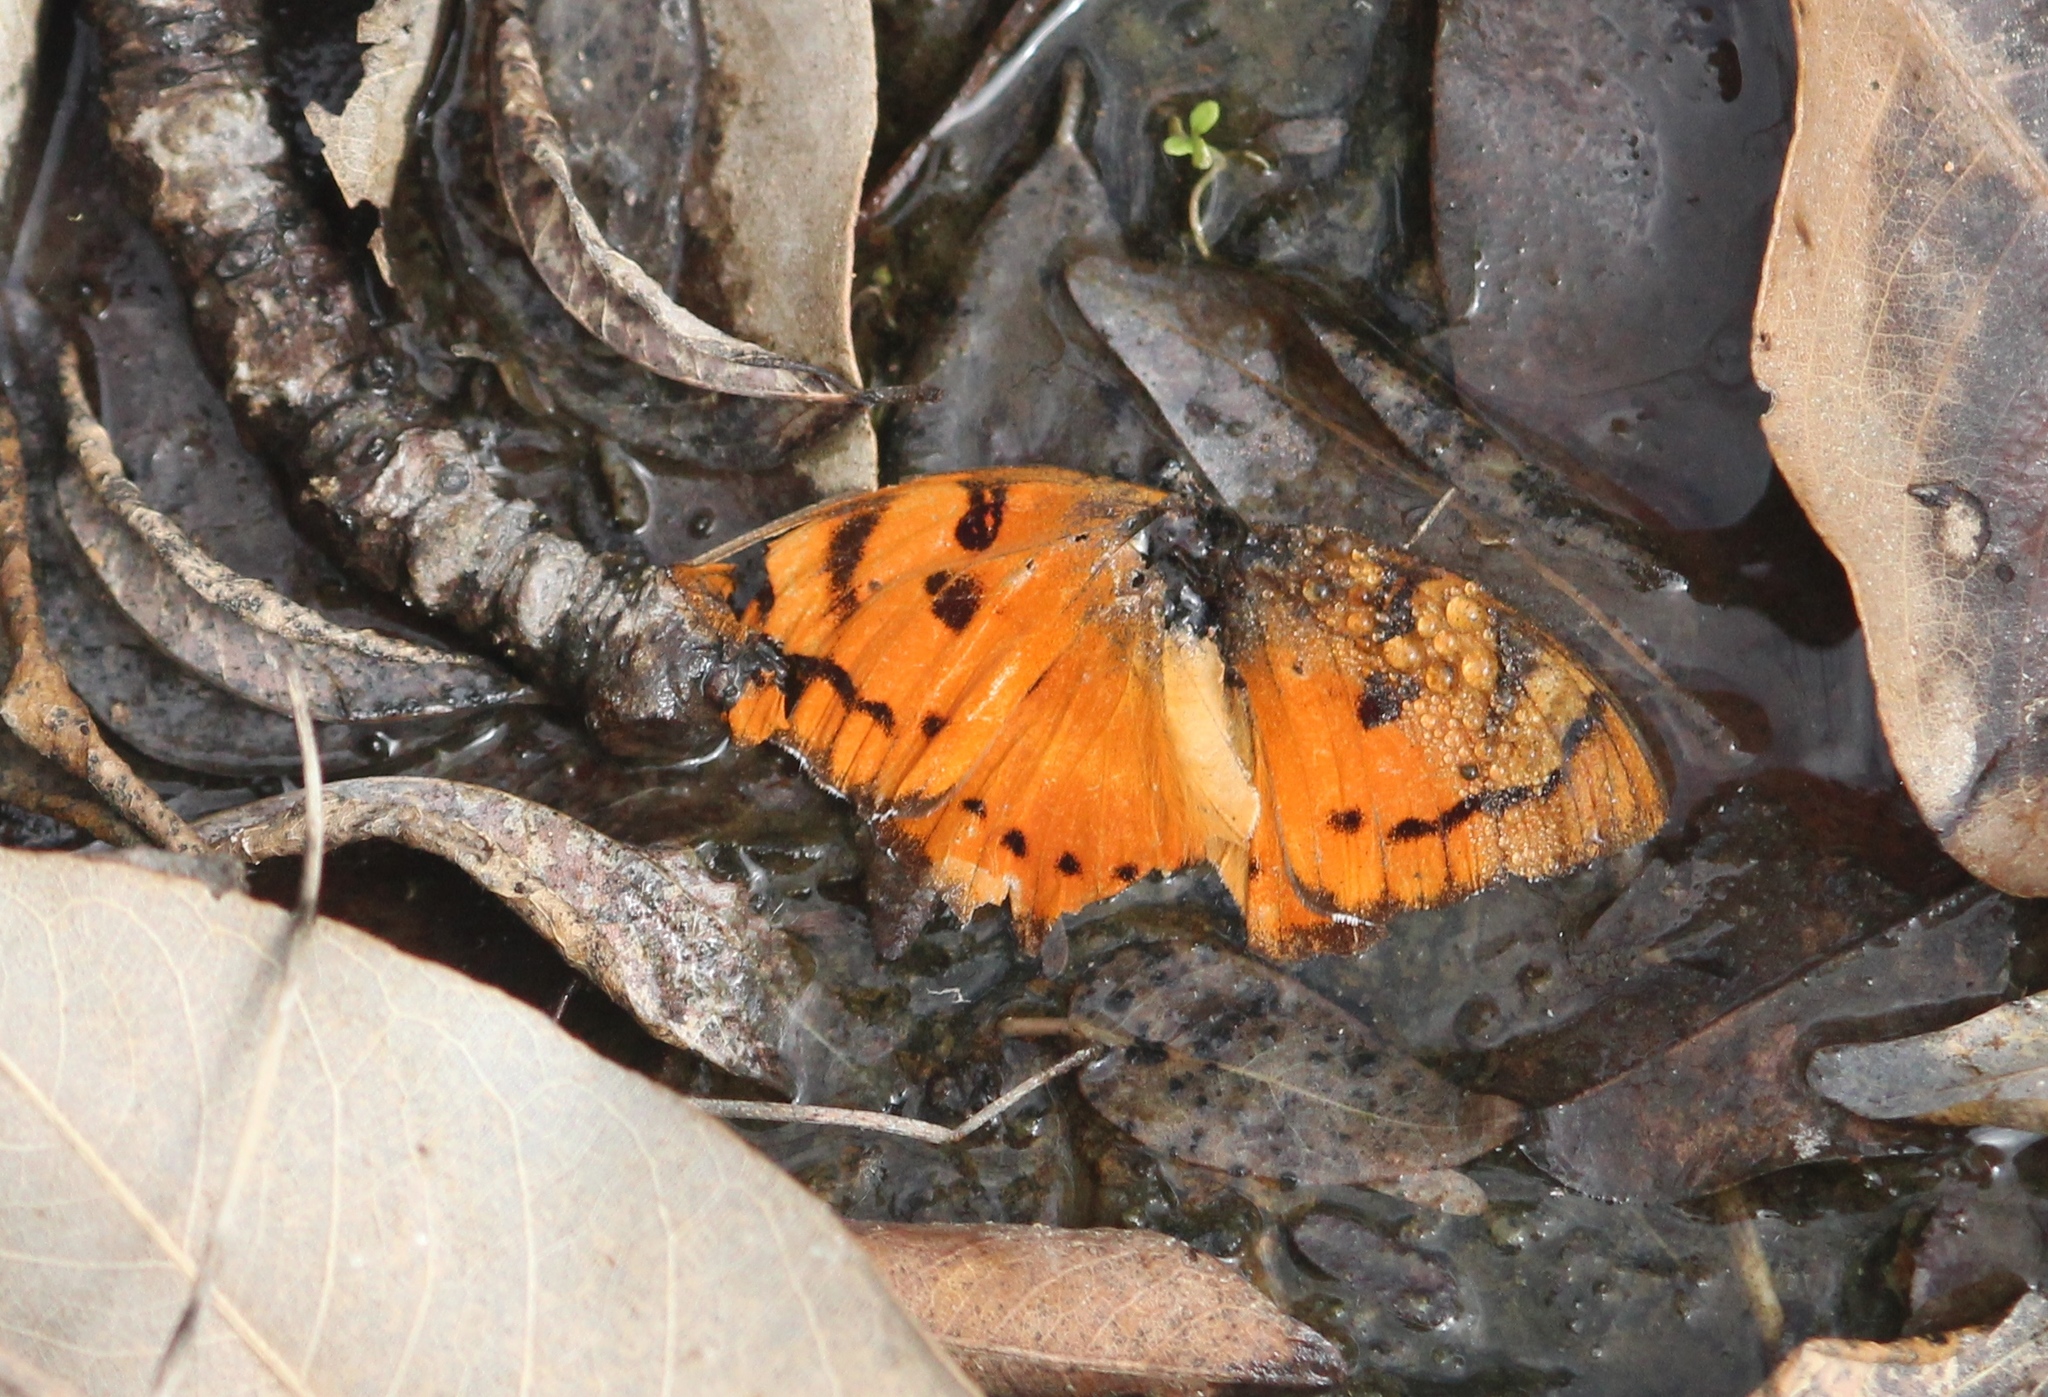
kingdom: Animalia
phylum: Arthropoda
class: Insecta
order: Lepidoptera
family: Nymphalidae
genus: Euthalia
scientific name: Euthalia nais
